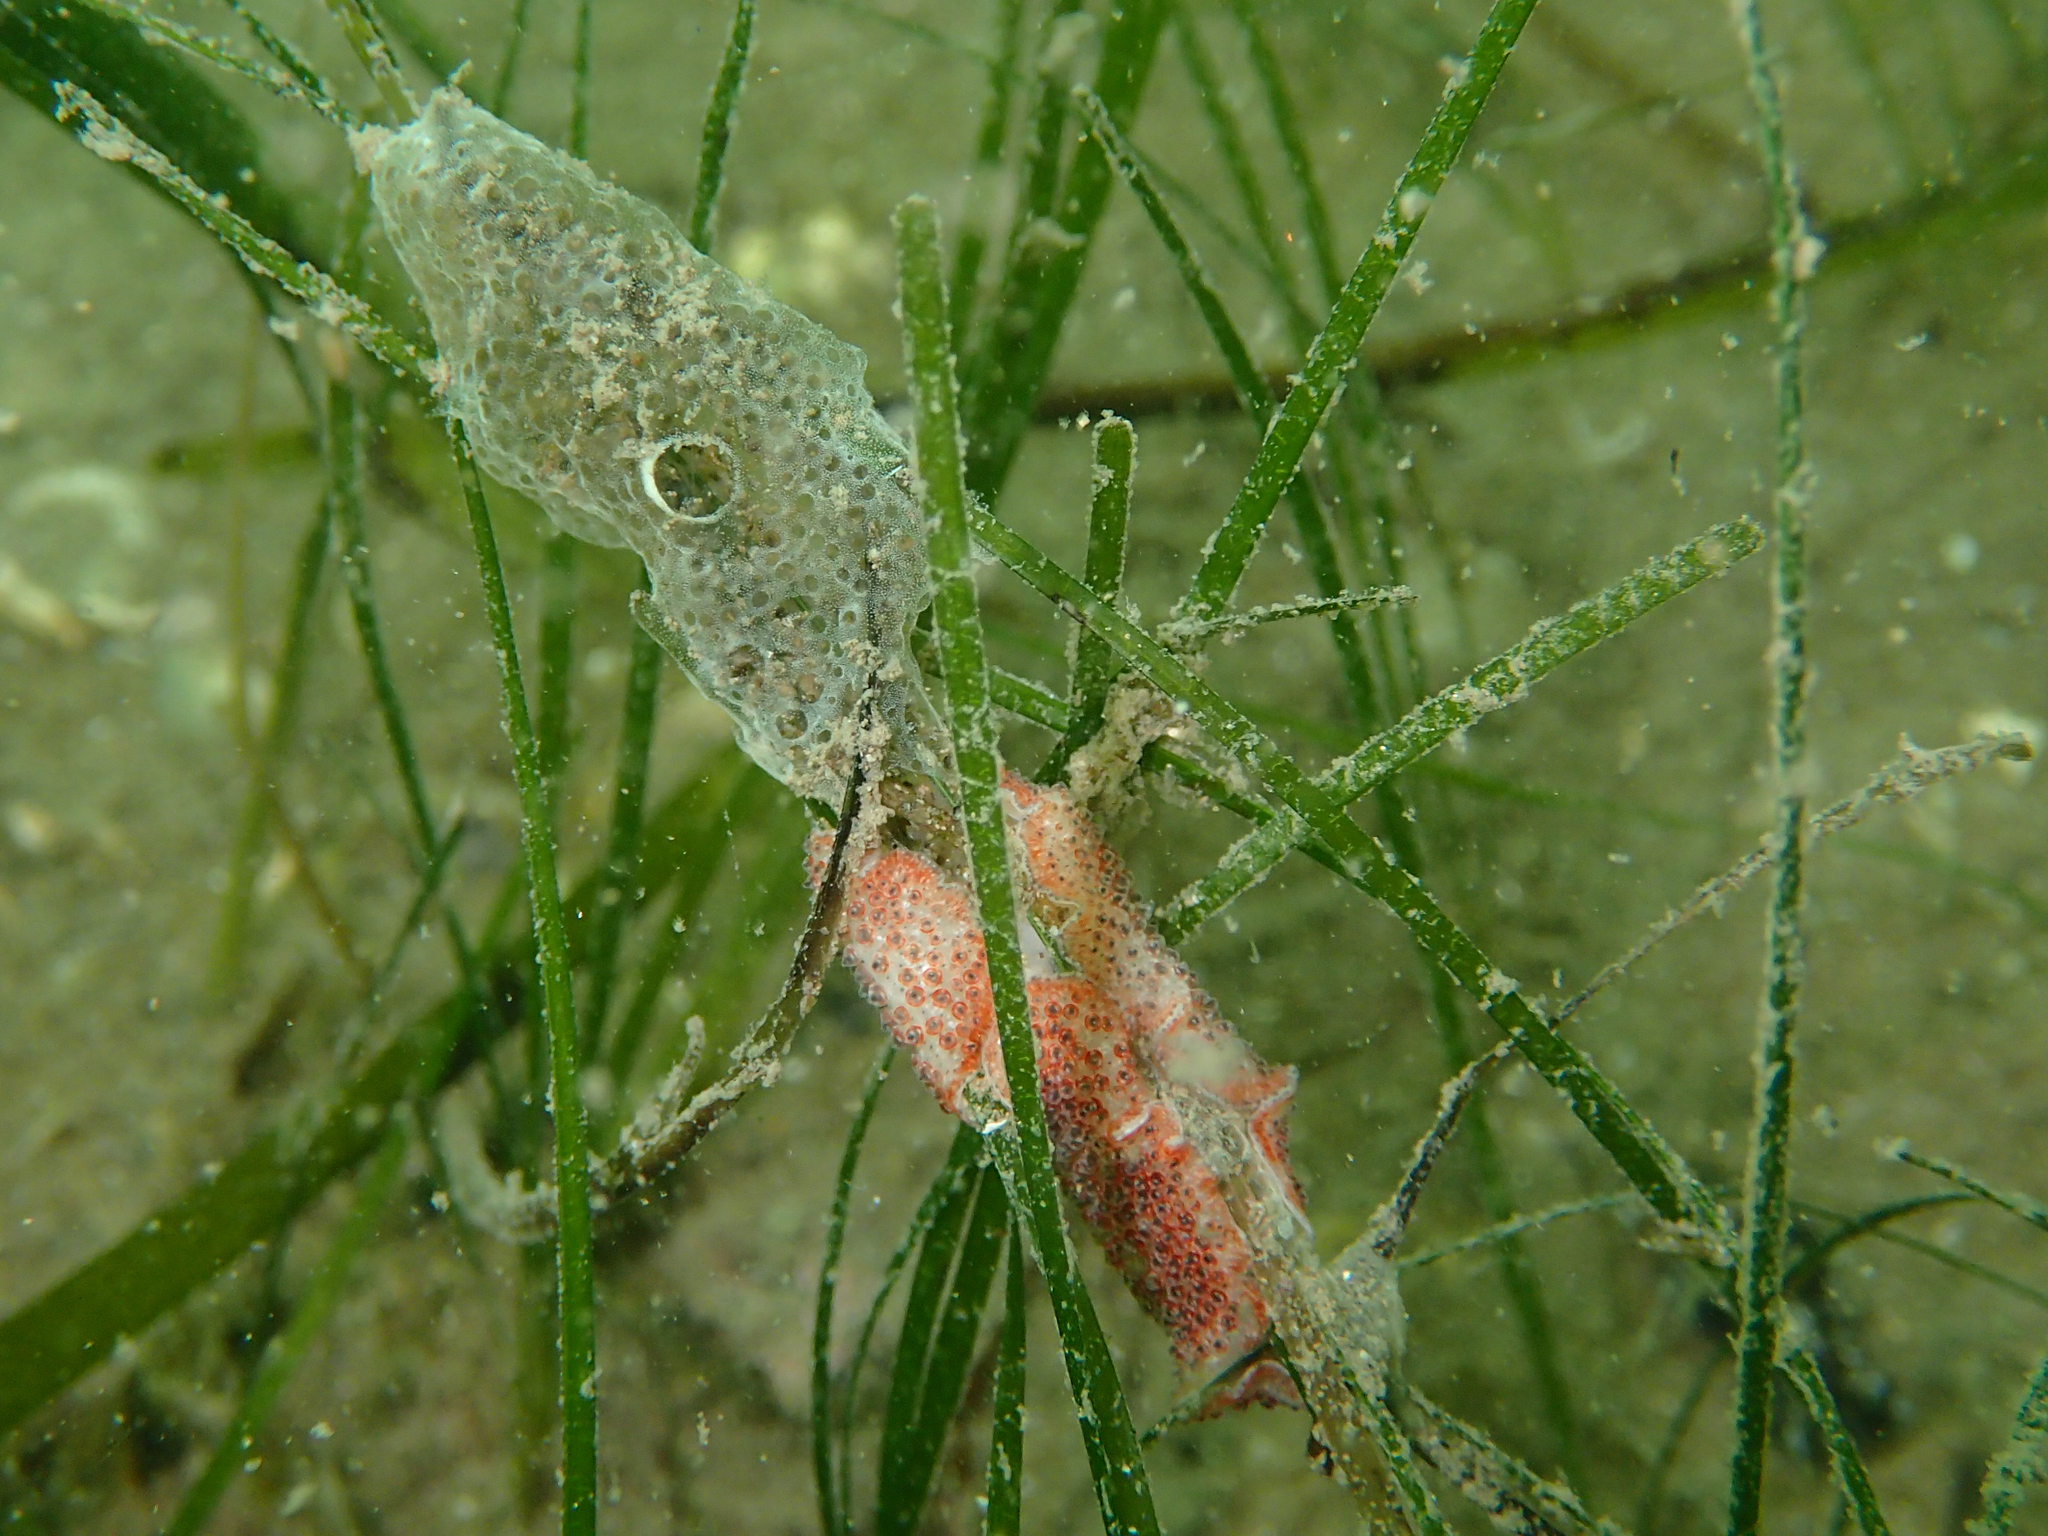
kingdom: Animalia
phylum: Platyhelminthes
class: Turbellaria
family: Pseudocerotidae
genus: Thysanozoon
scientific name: Thysanozoon brocchii
